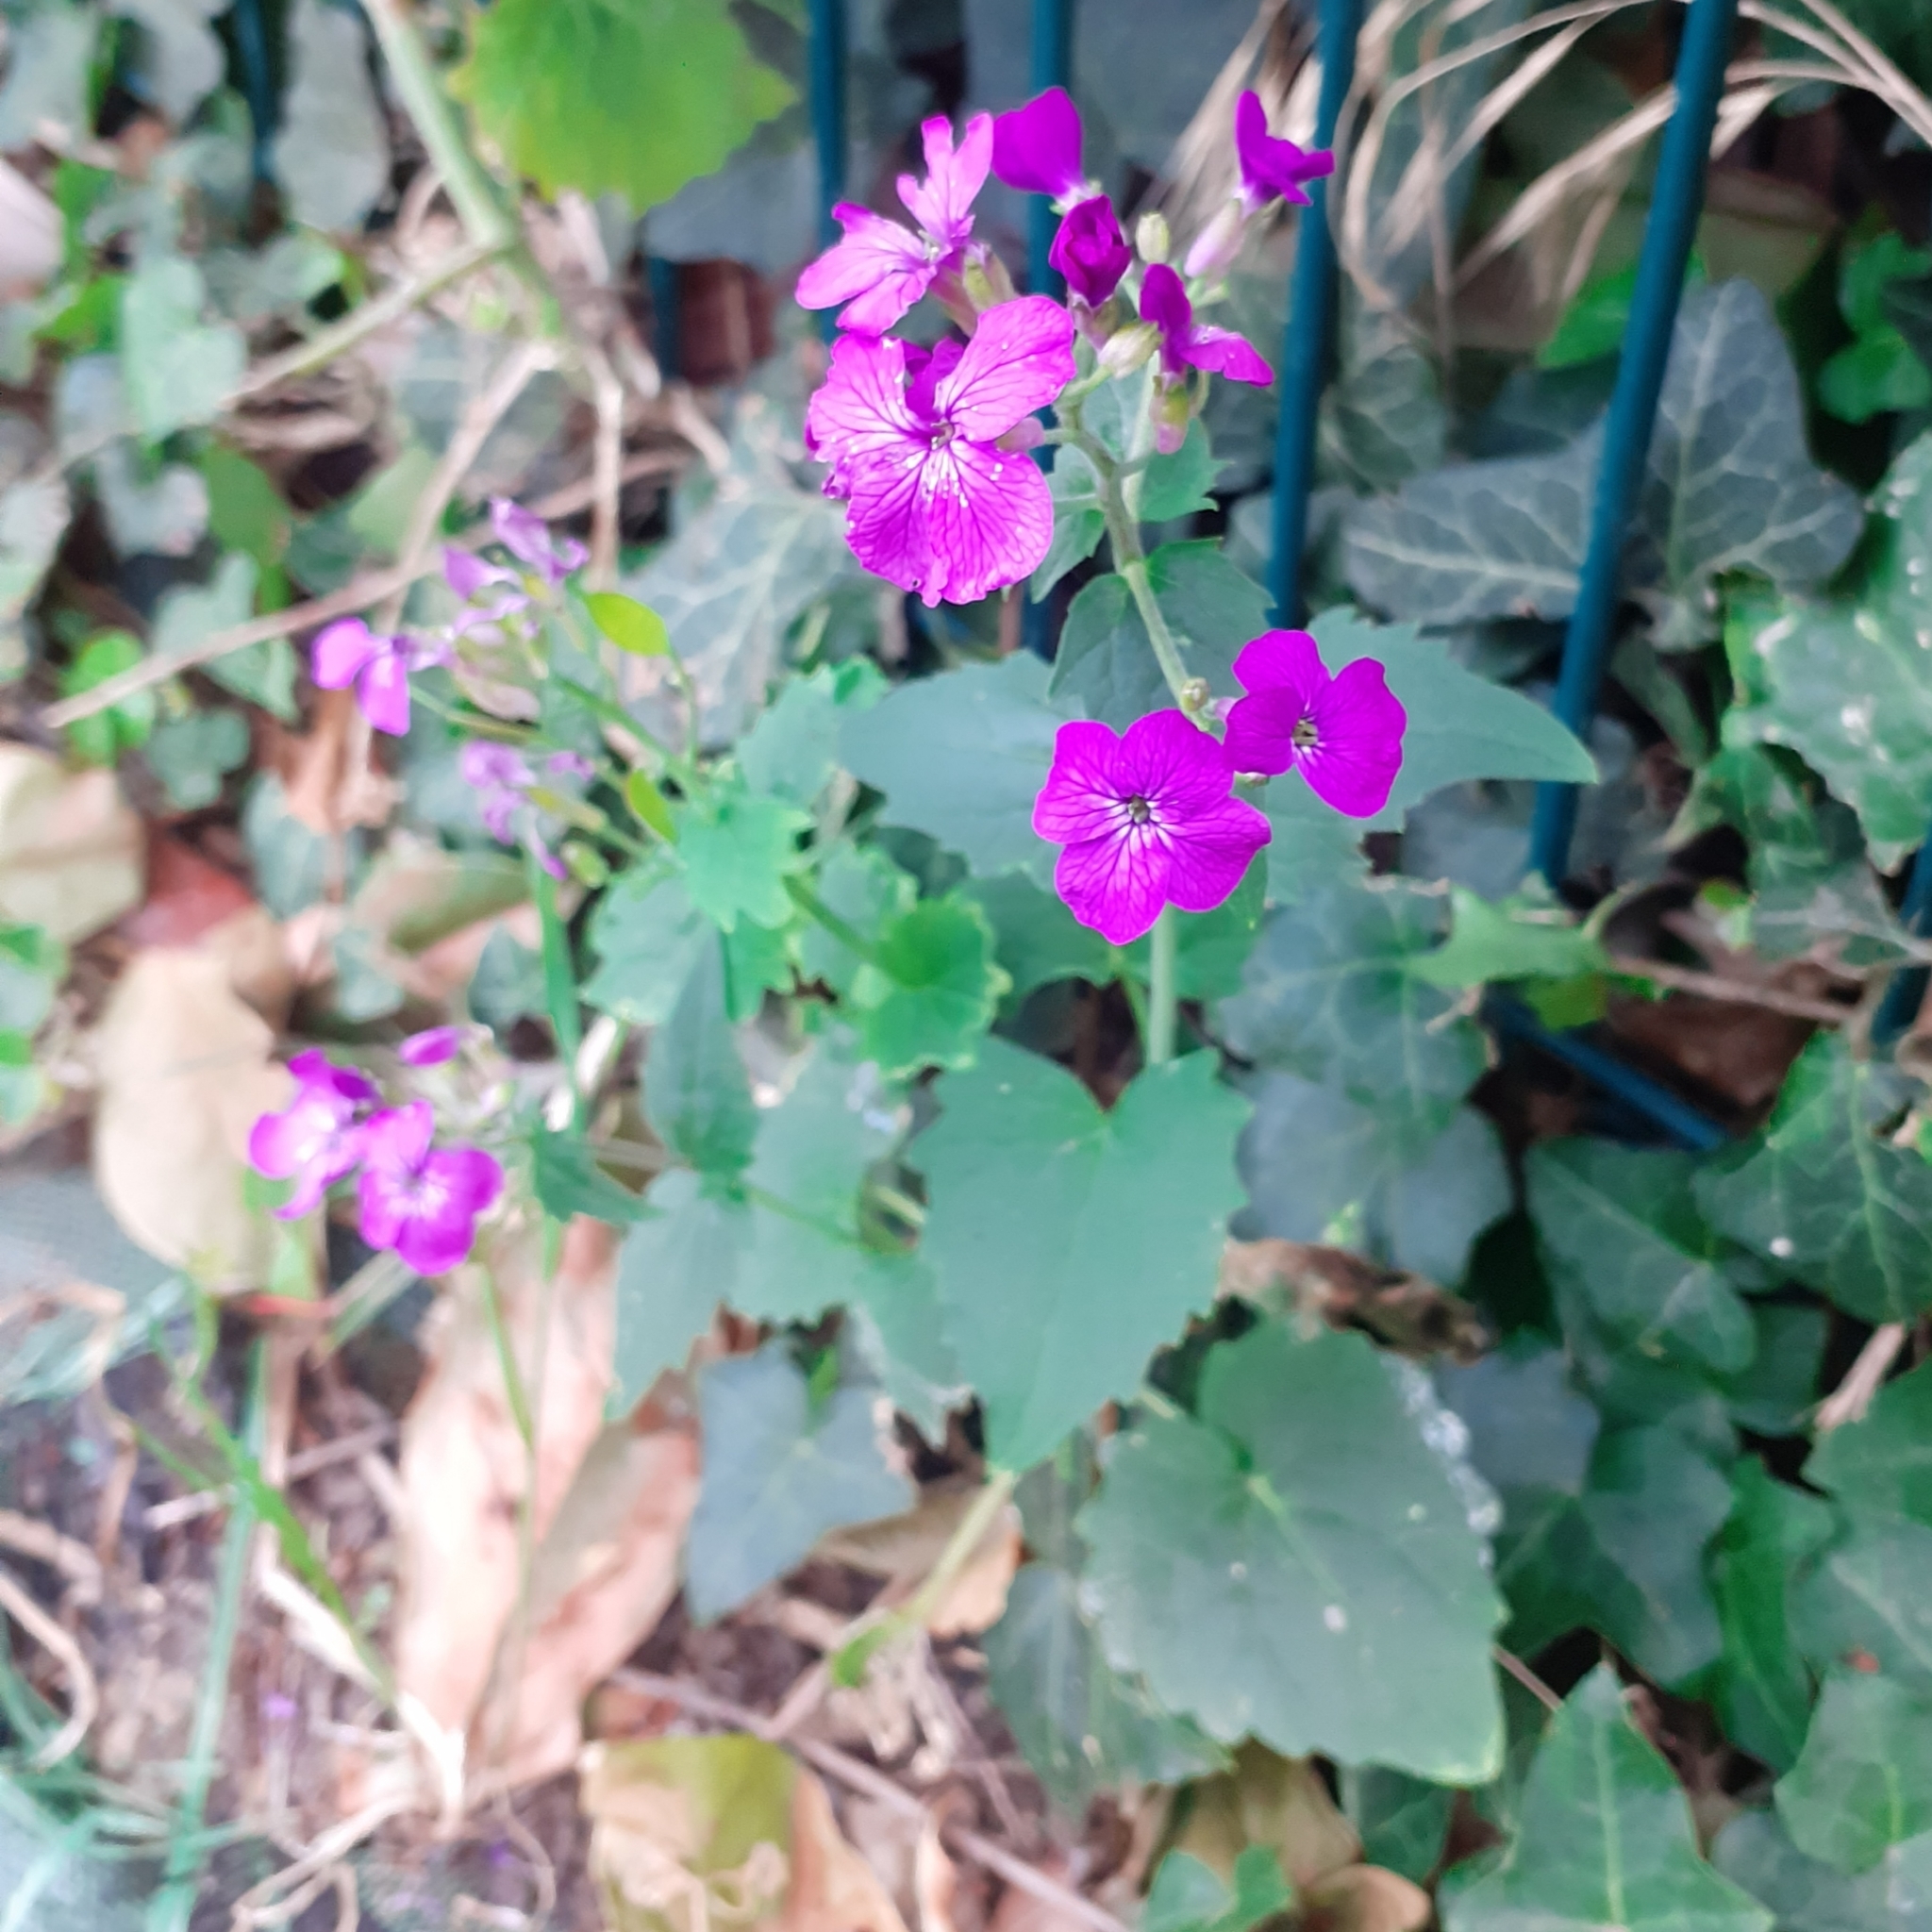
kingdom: Plantae
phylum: Tracheophyta
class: Magnoliopsida
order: Brassicales
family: Brassicaceae
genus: Lunaria
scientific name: Lunaria annua
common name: Honesty
